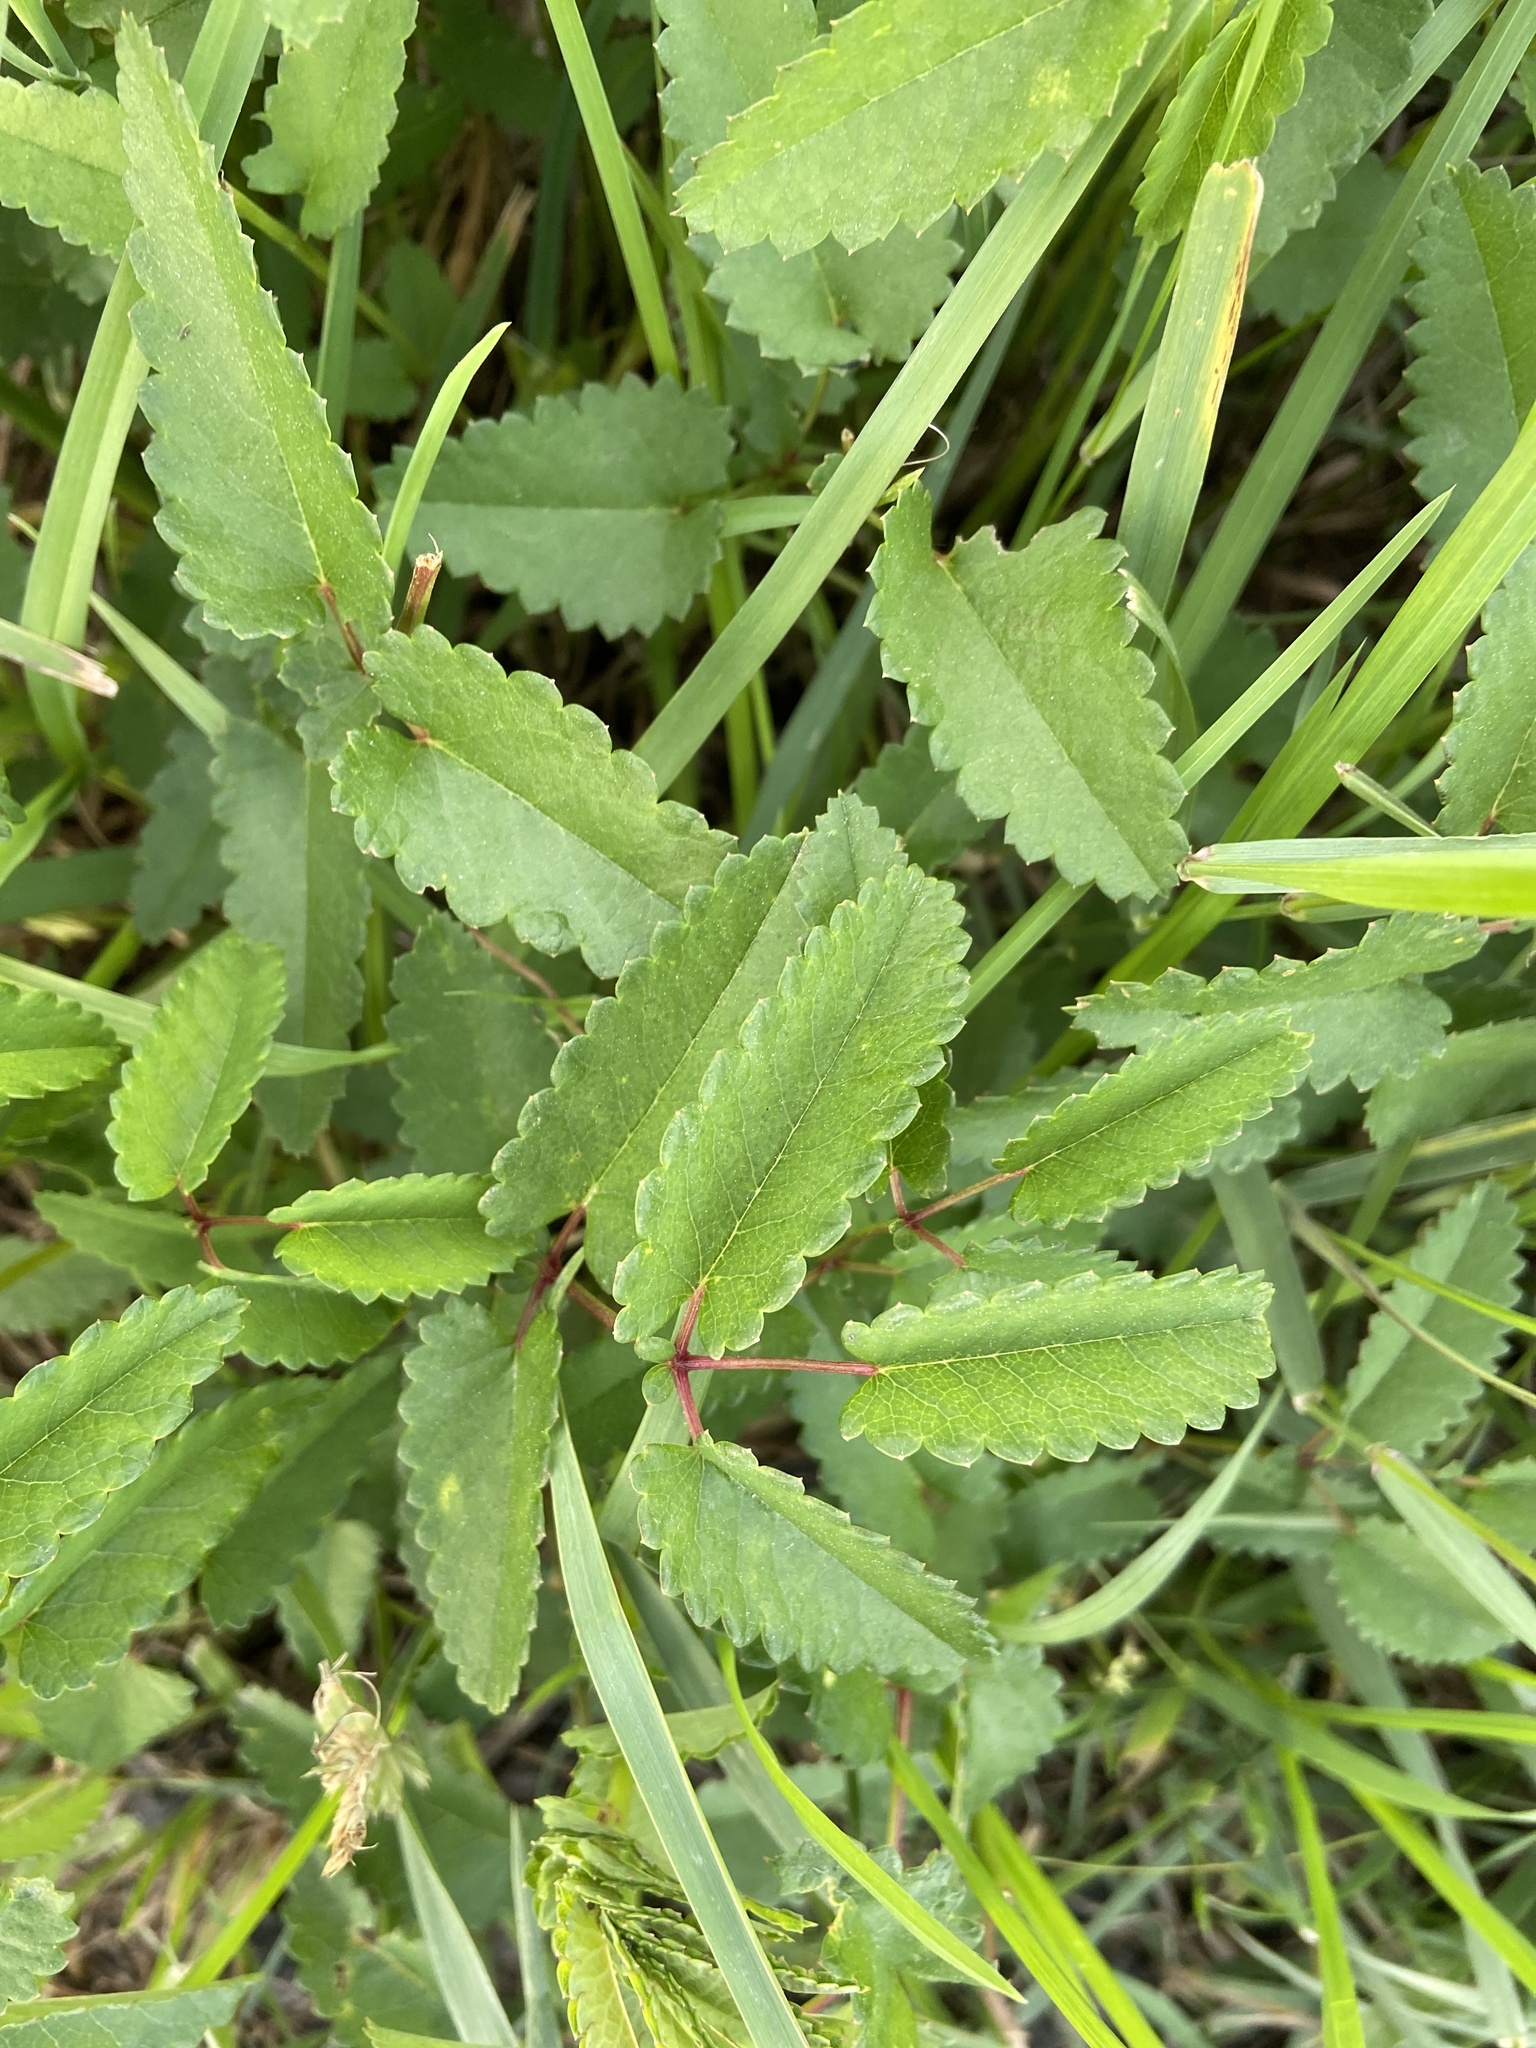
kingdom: Plantae
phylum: Tracheophyta
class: Magnoliopsida
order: Rosales
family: Rosaceae
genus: Sanguisorba
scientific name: Sanguisorba officinalis
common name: Great burnet
